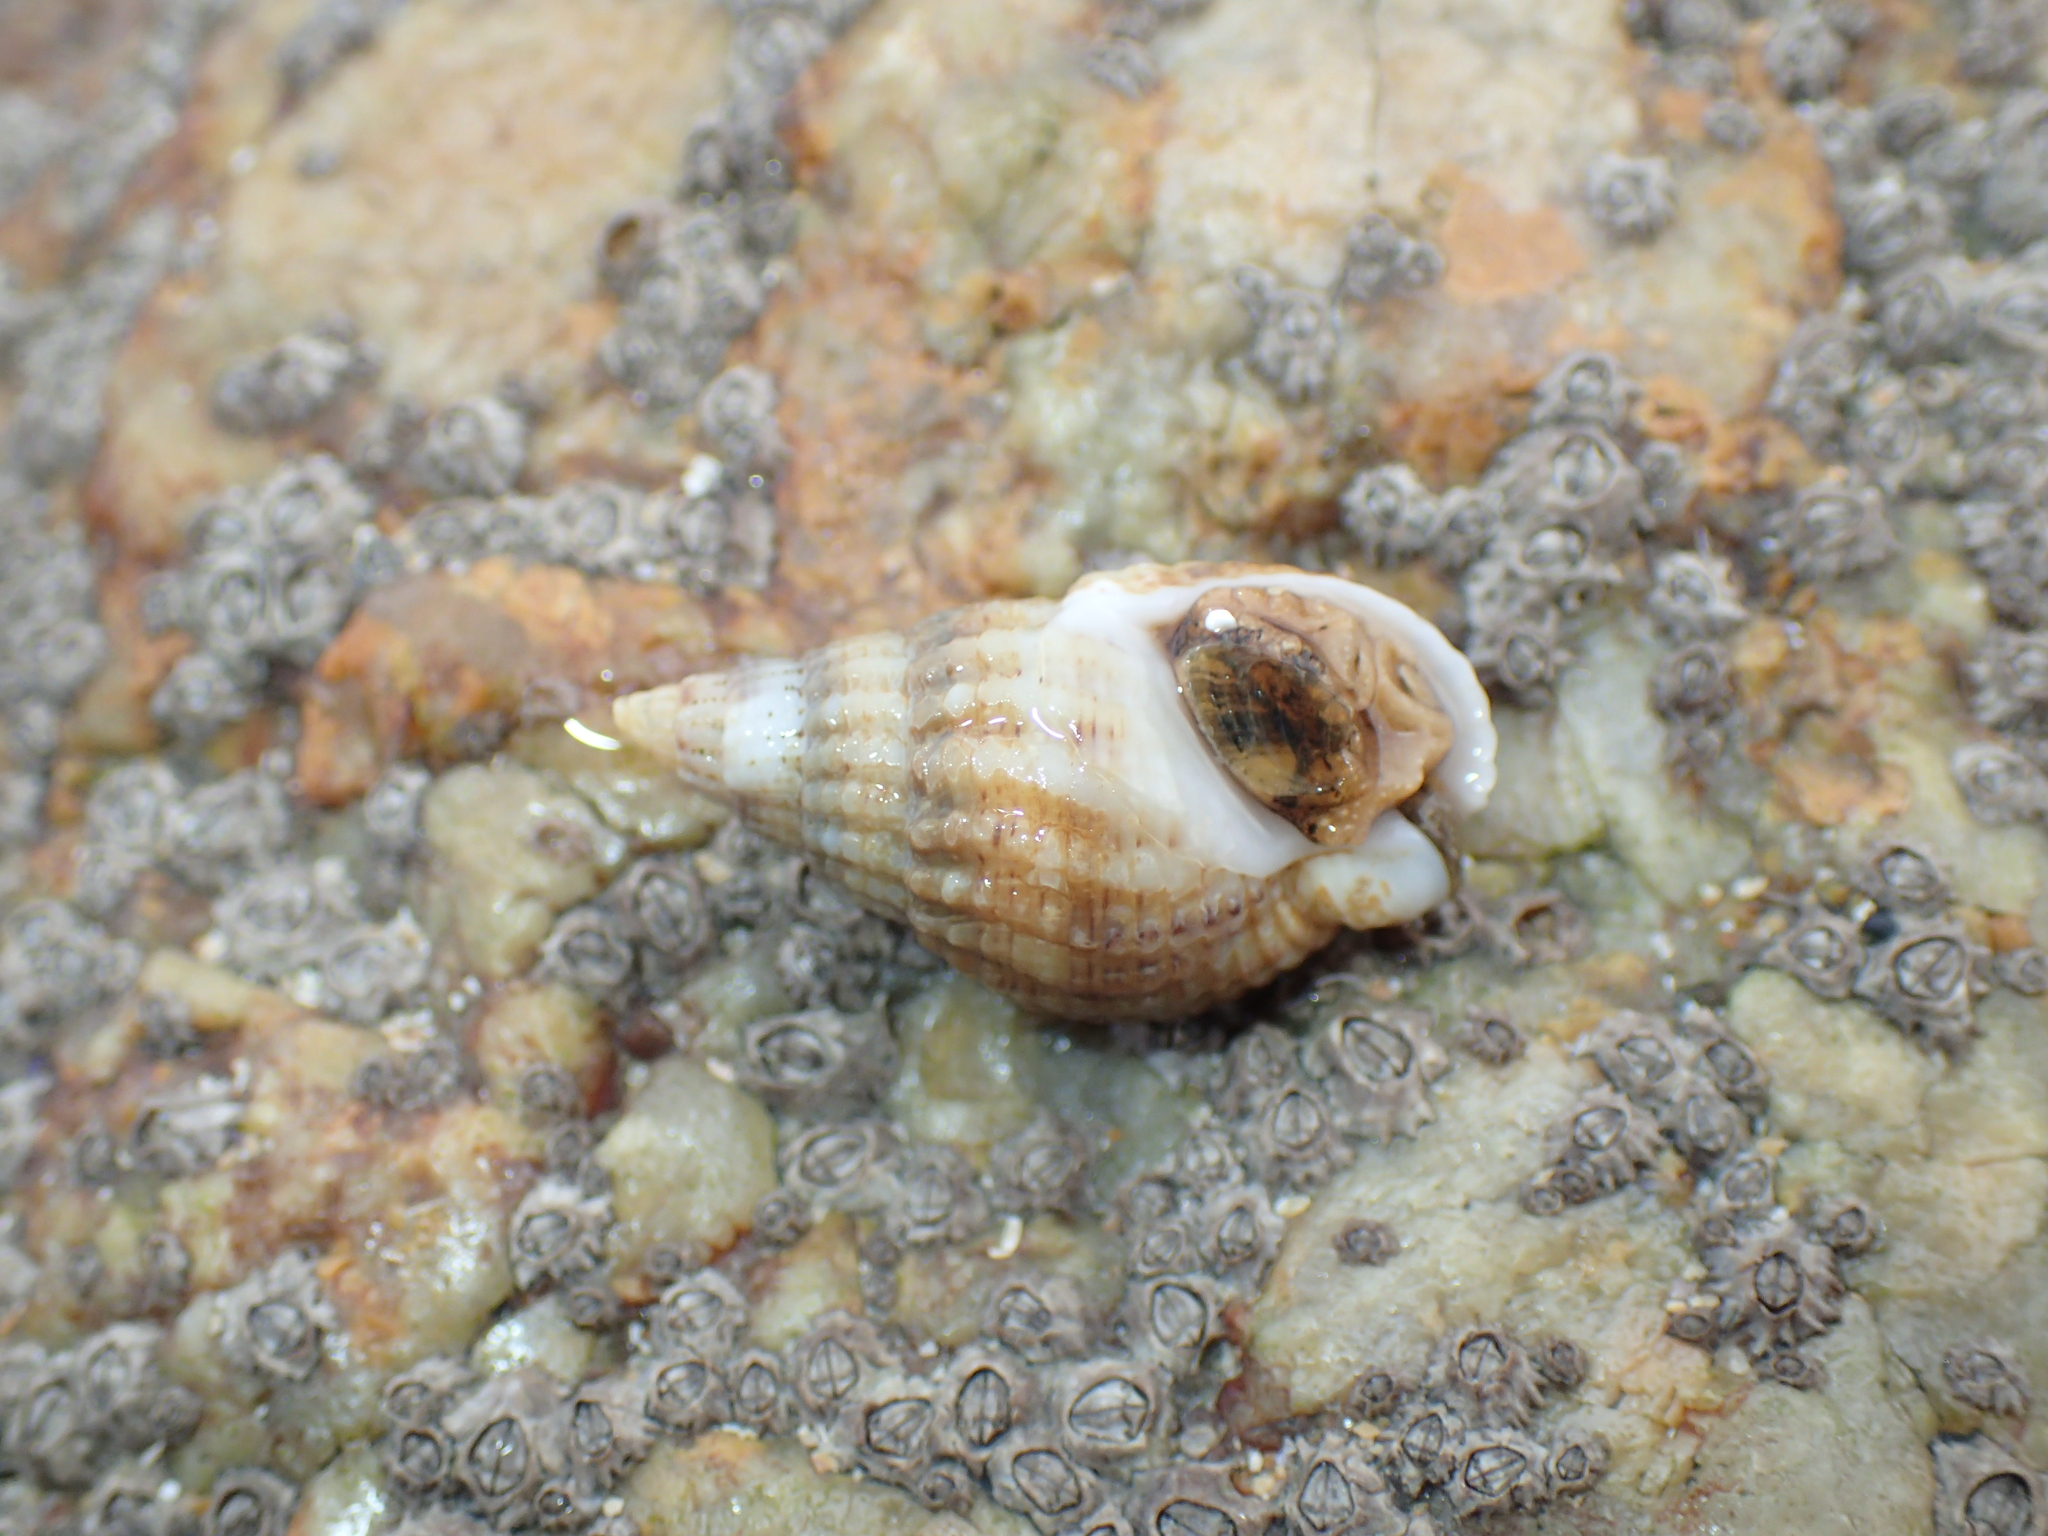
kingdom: Animalia
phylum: Mollusca
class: Gastropoda
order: Neogastropoda
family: Nassariidae
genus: Tritia
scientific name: Tritia reticulata
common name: Netted dog whelk
